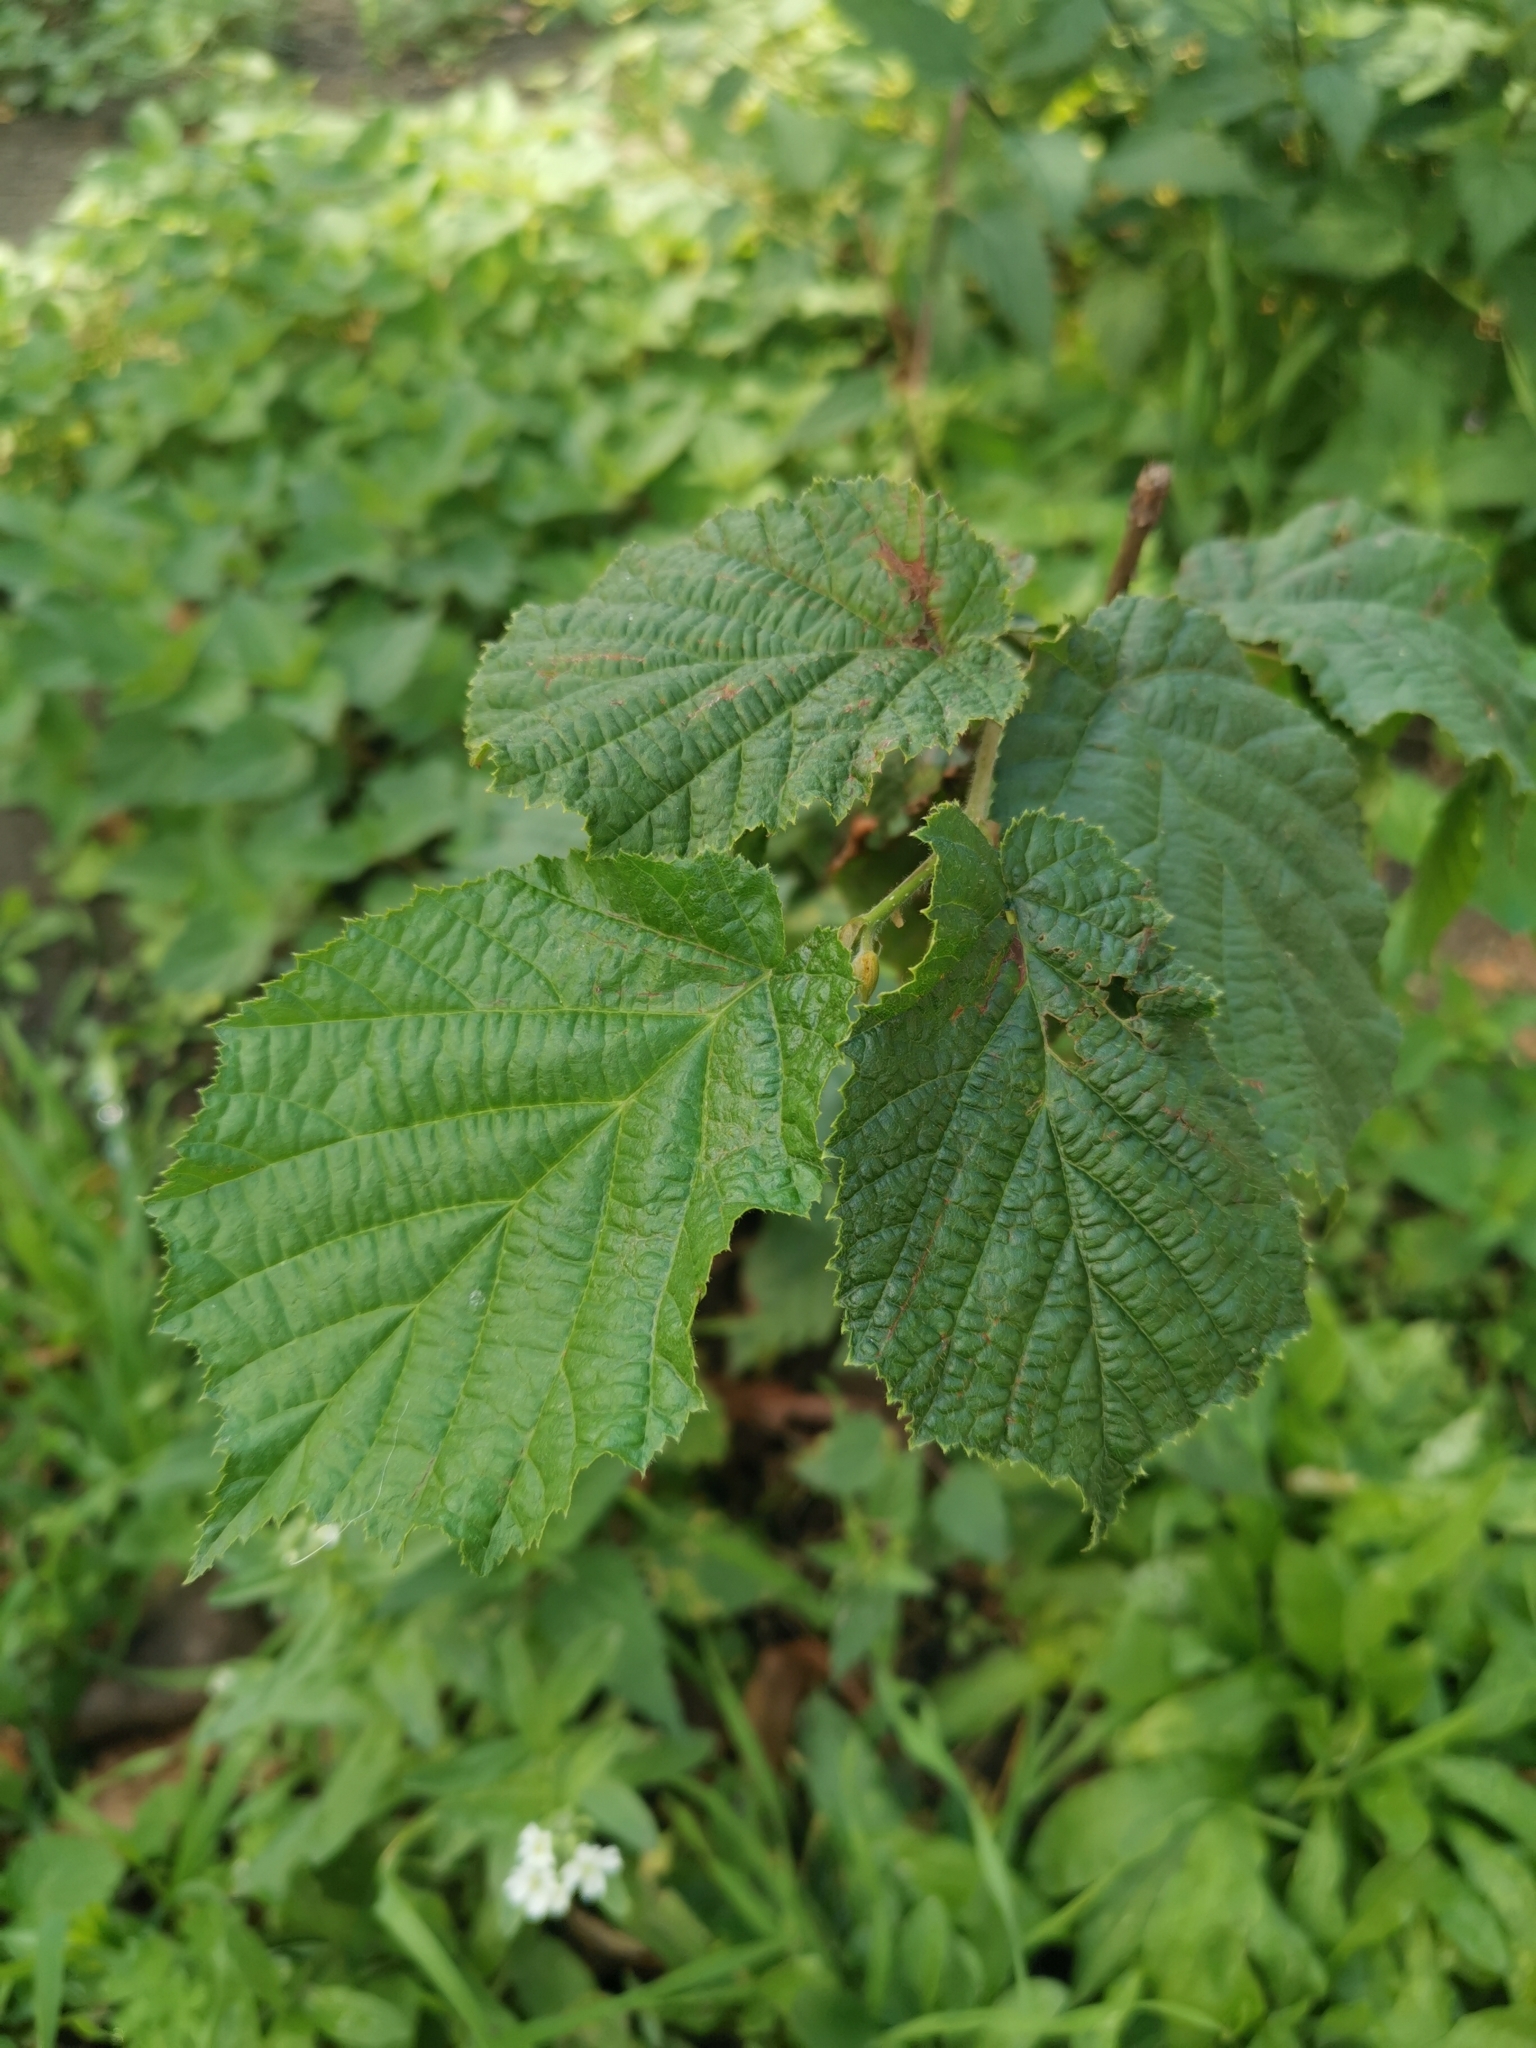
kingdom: Plantae
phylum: Tracheophyta
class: Magnoliopsida
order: Fagales
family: Betulaceae
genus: Corylus
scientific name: Corylus avellana
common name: European hazel
